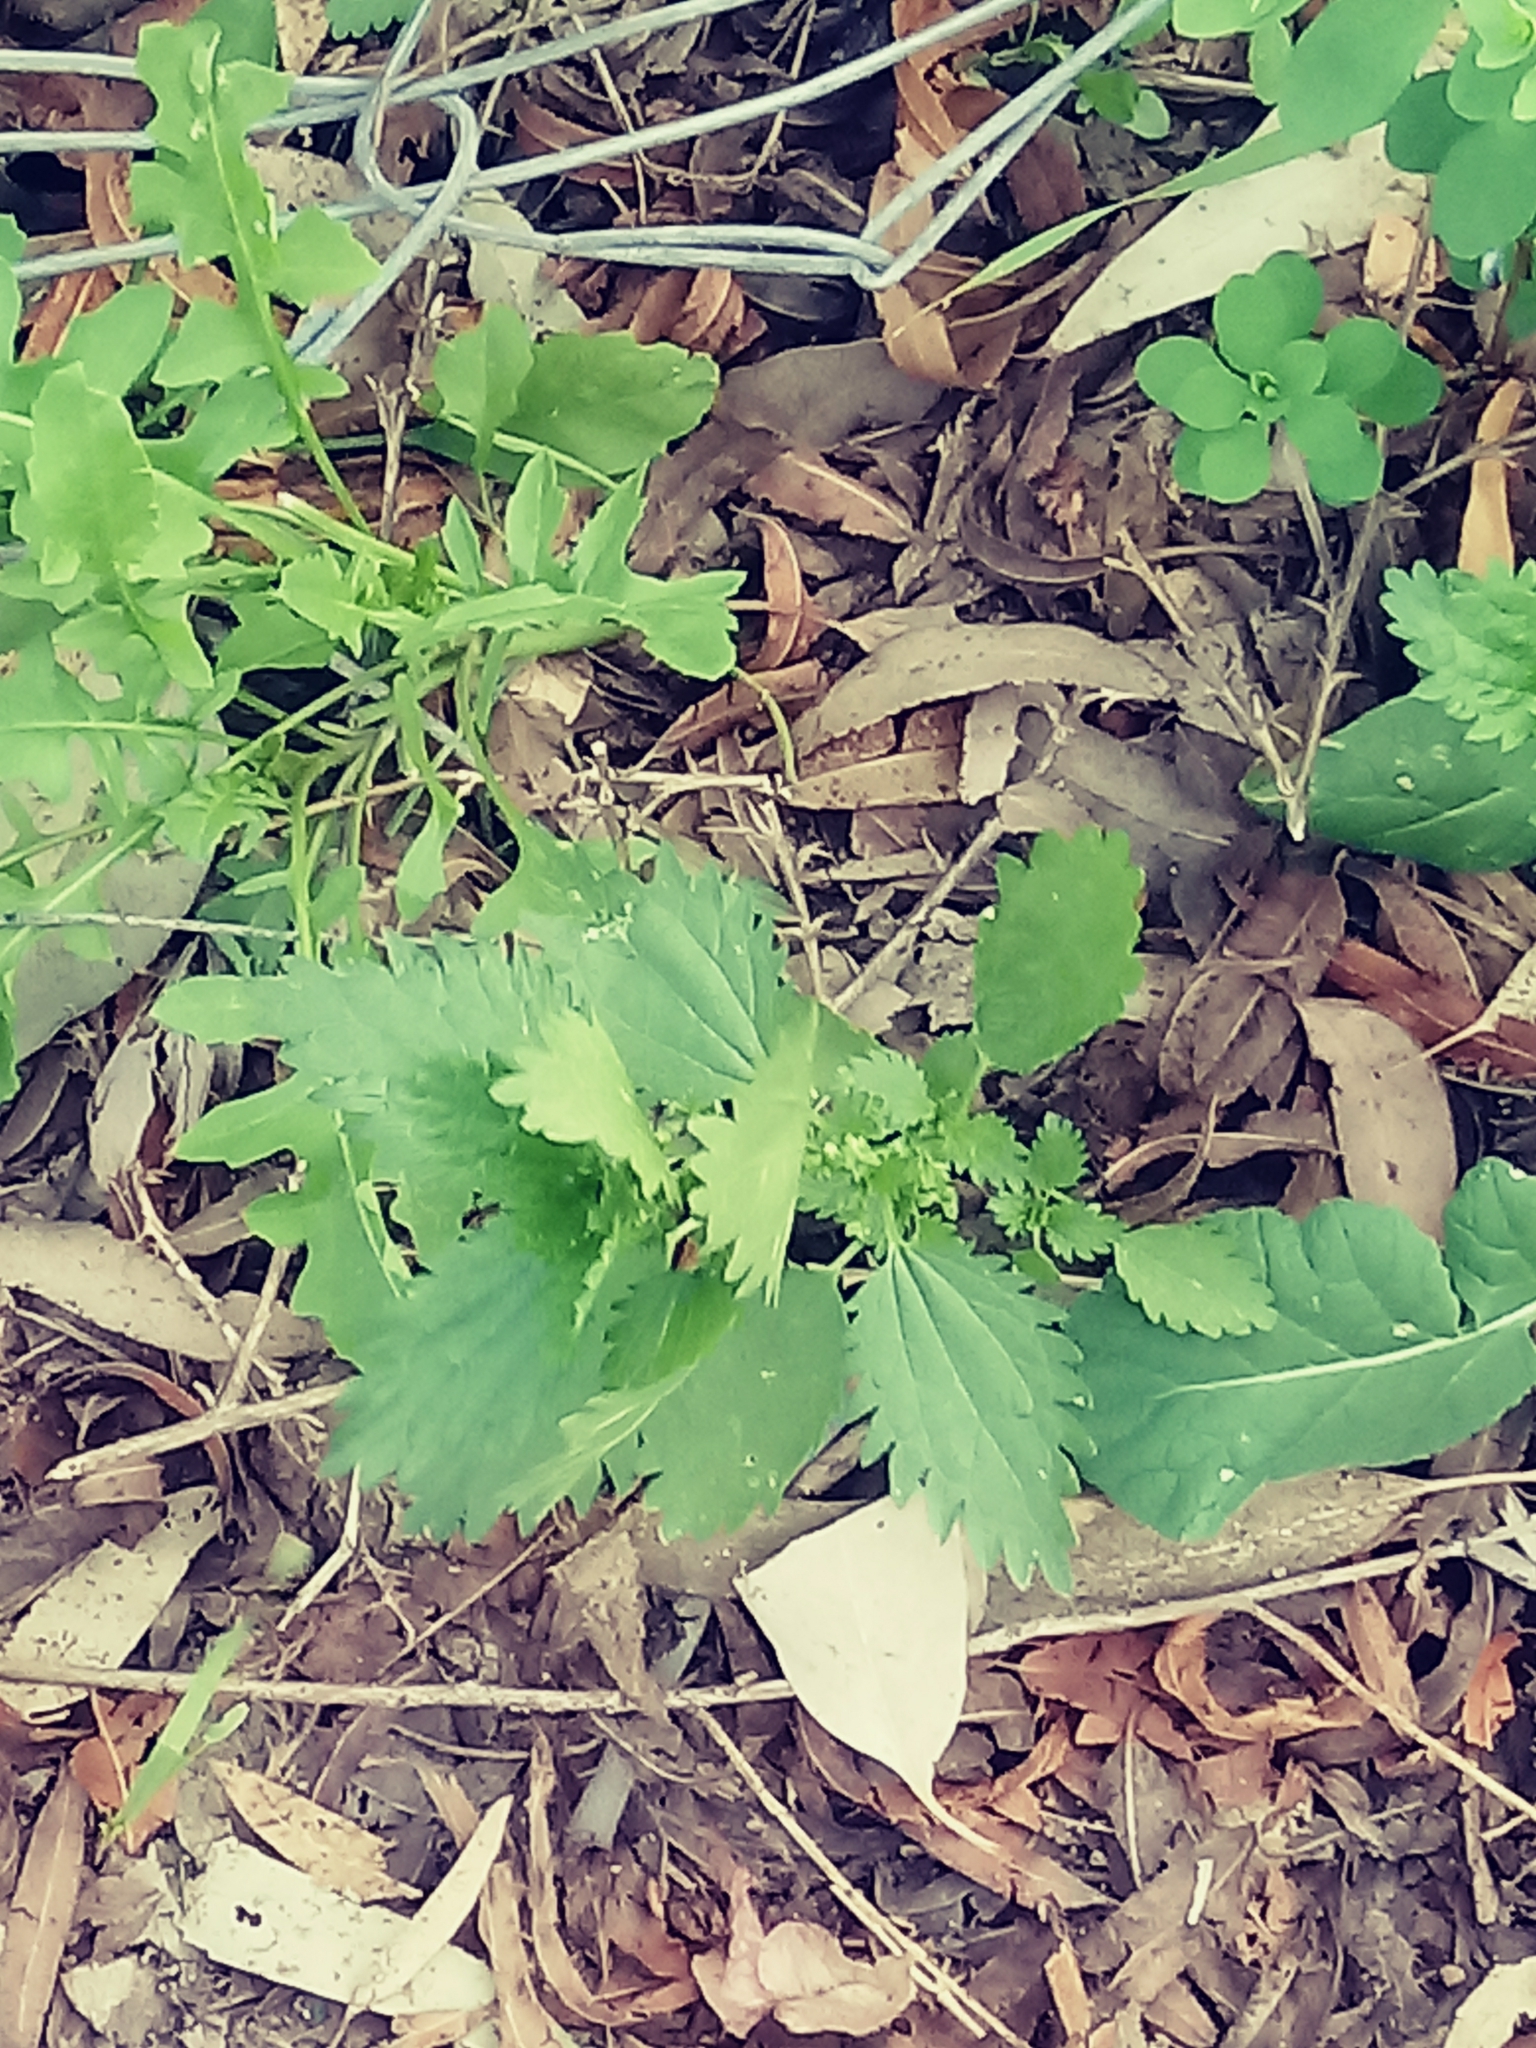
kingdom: Plantae
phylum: Tracheophyta
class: Magnoliopsida
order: Rosales
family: Urticaceae
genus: Urtica
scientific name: Urtica urens
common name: Dwarf nettle
